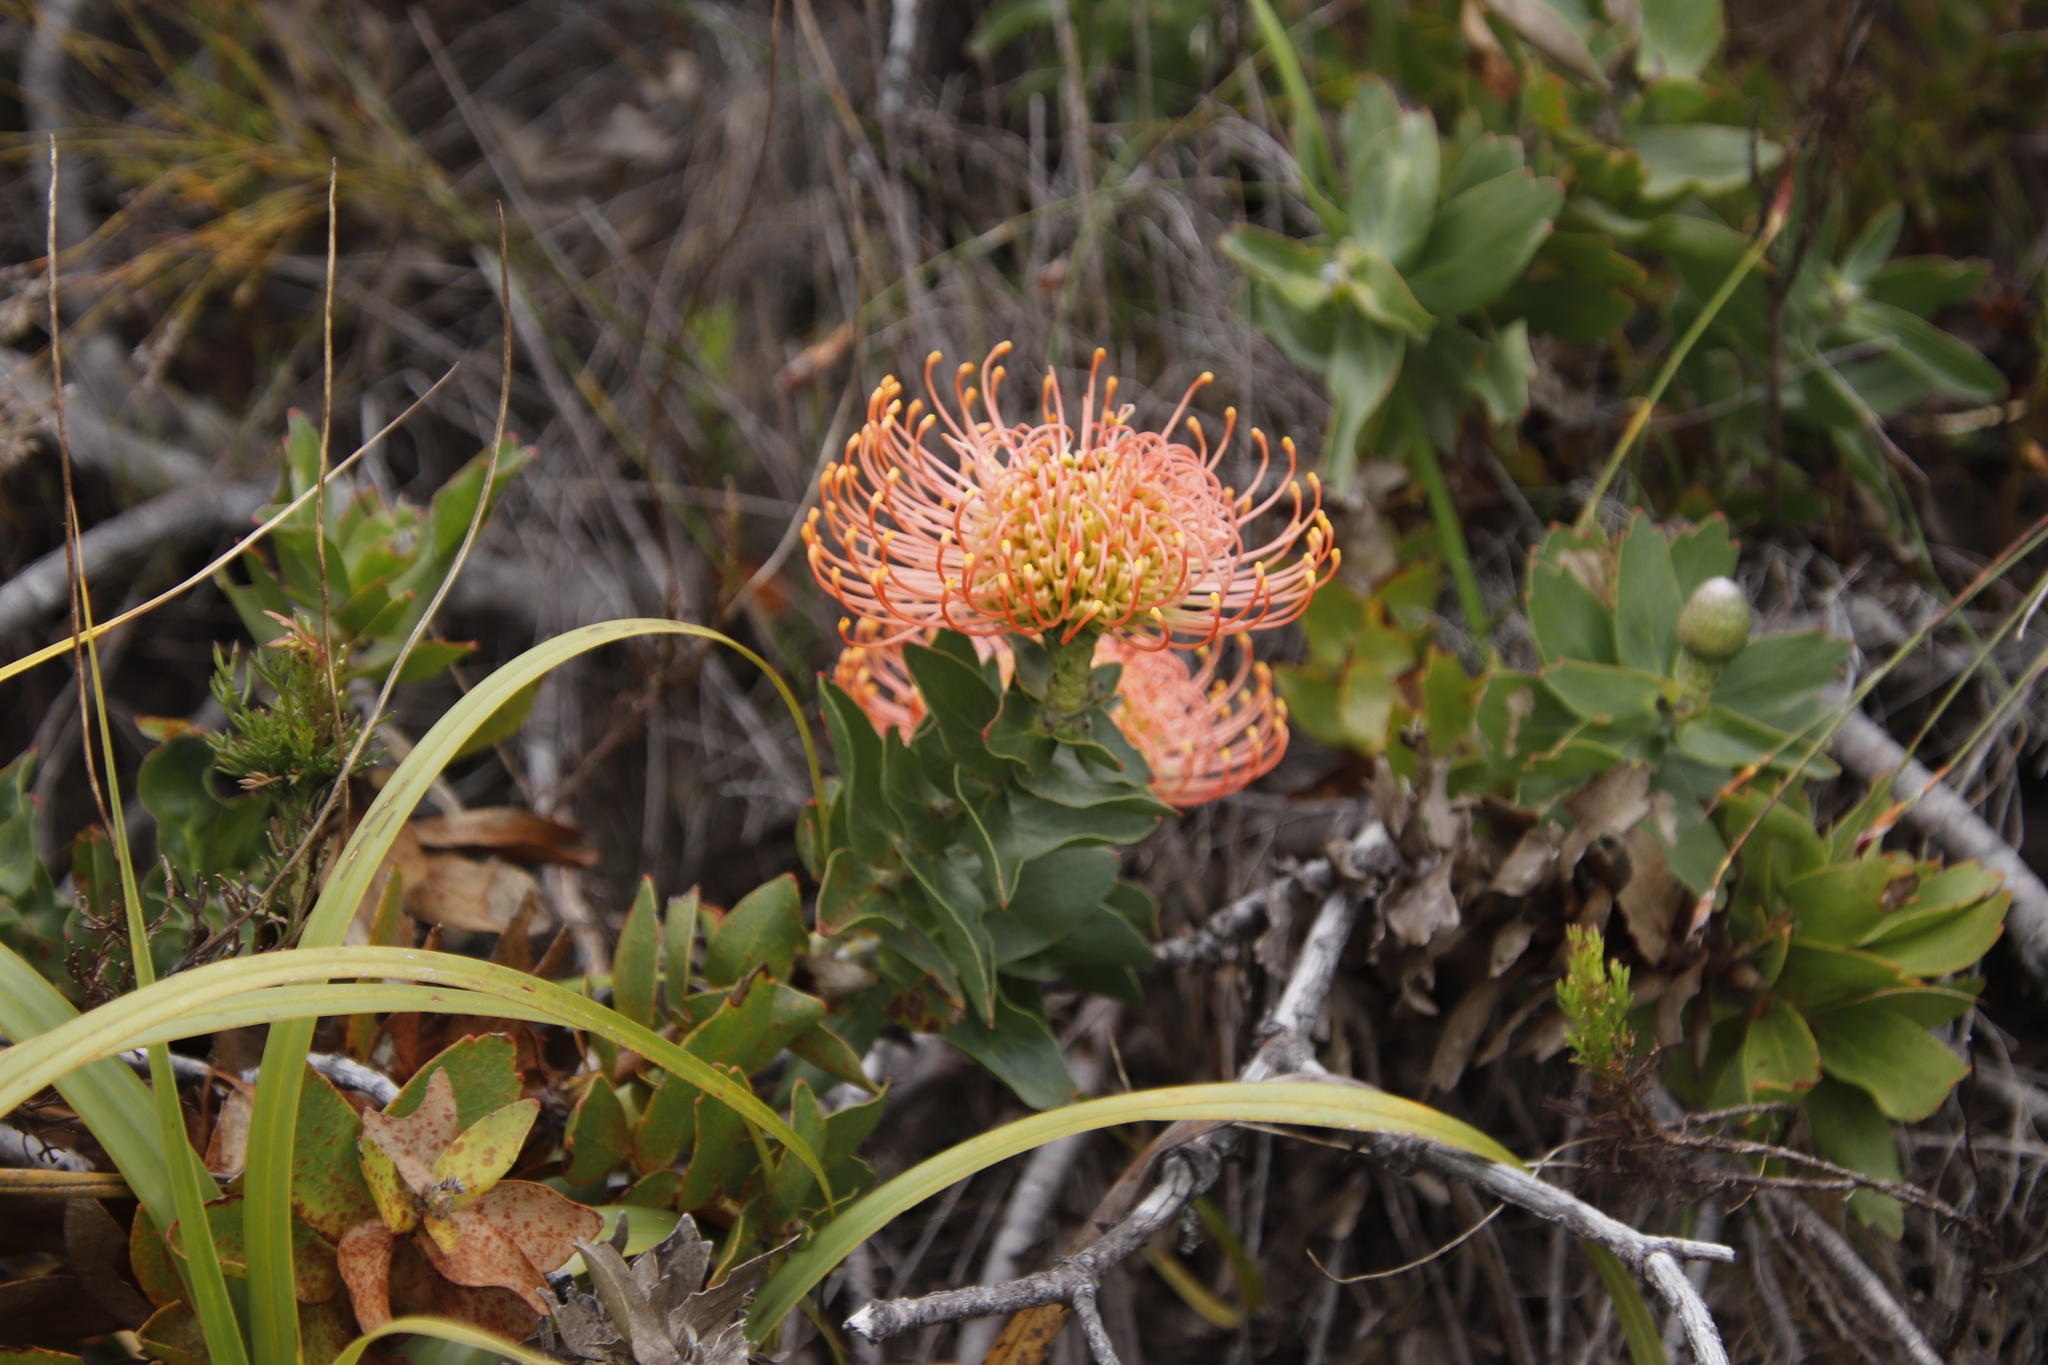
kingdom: Plantae
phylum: Tracheophyta
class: Magnoliopsida
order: Proteales
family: Proteaceae
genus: Leucospermum
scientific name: Leucospermum cordifolium
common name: Red pincushion-protea
